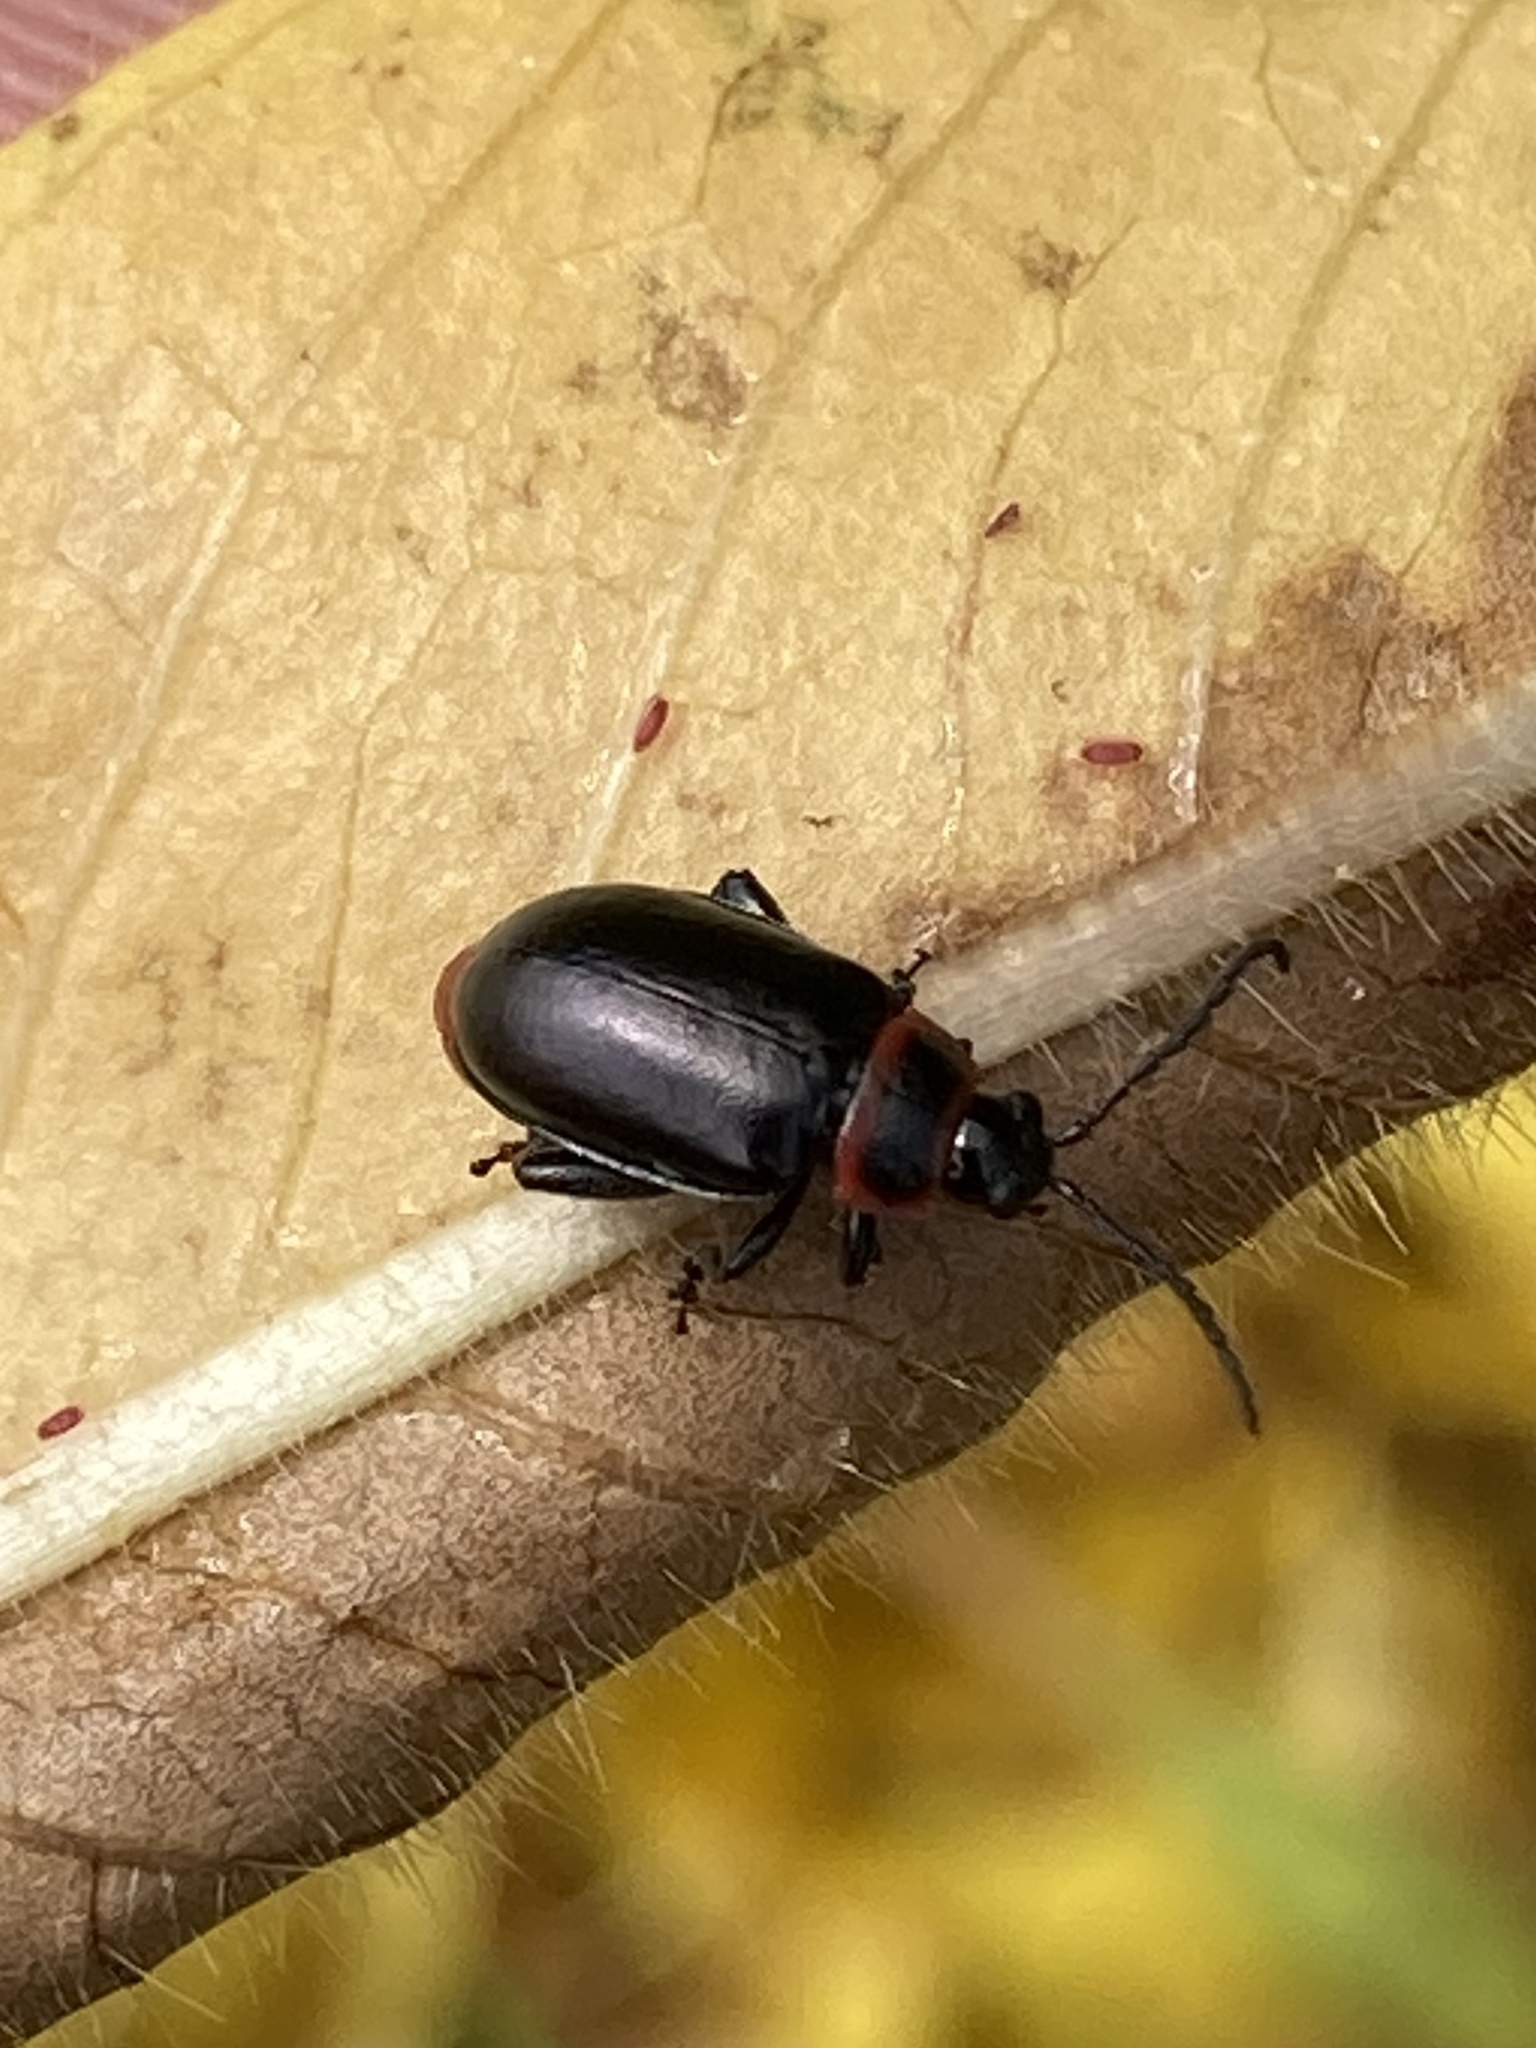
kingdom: Animalia
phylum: Arthropoda
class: Insecta
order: Coleoptera
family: Chrysomelidae
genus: Kuschelina
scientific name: Kuschelina vians
